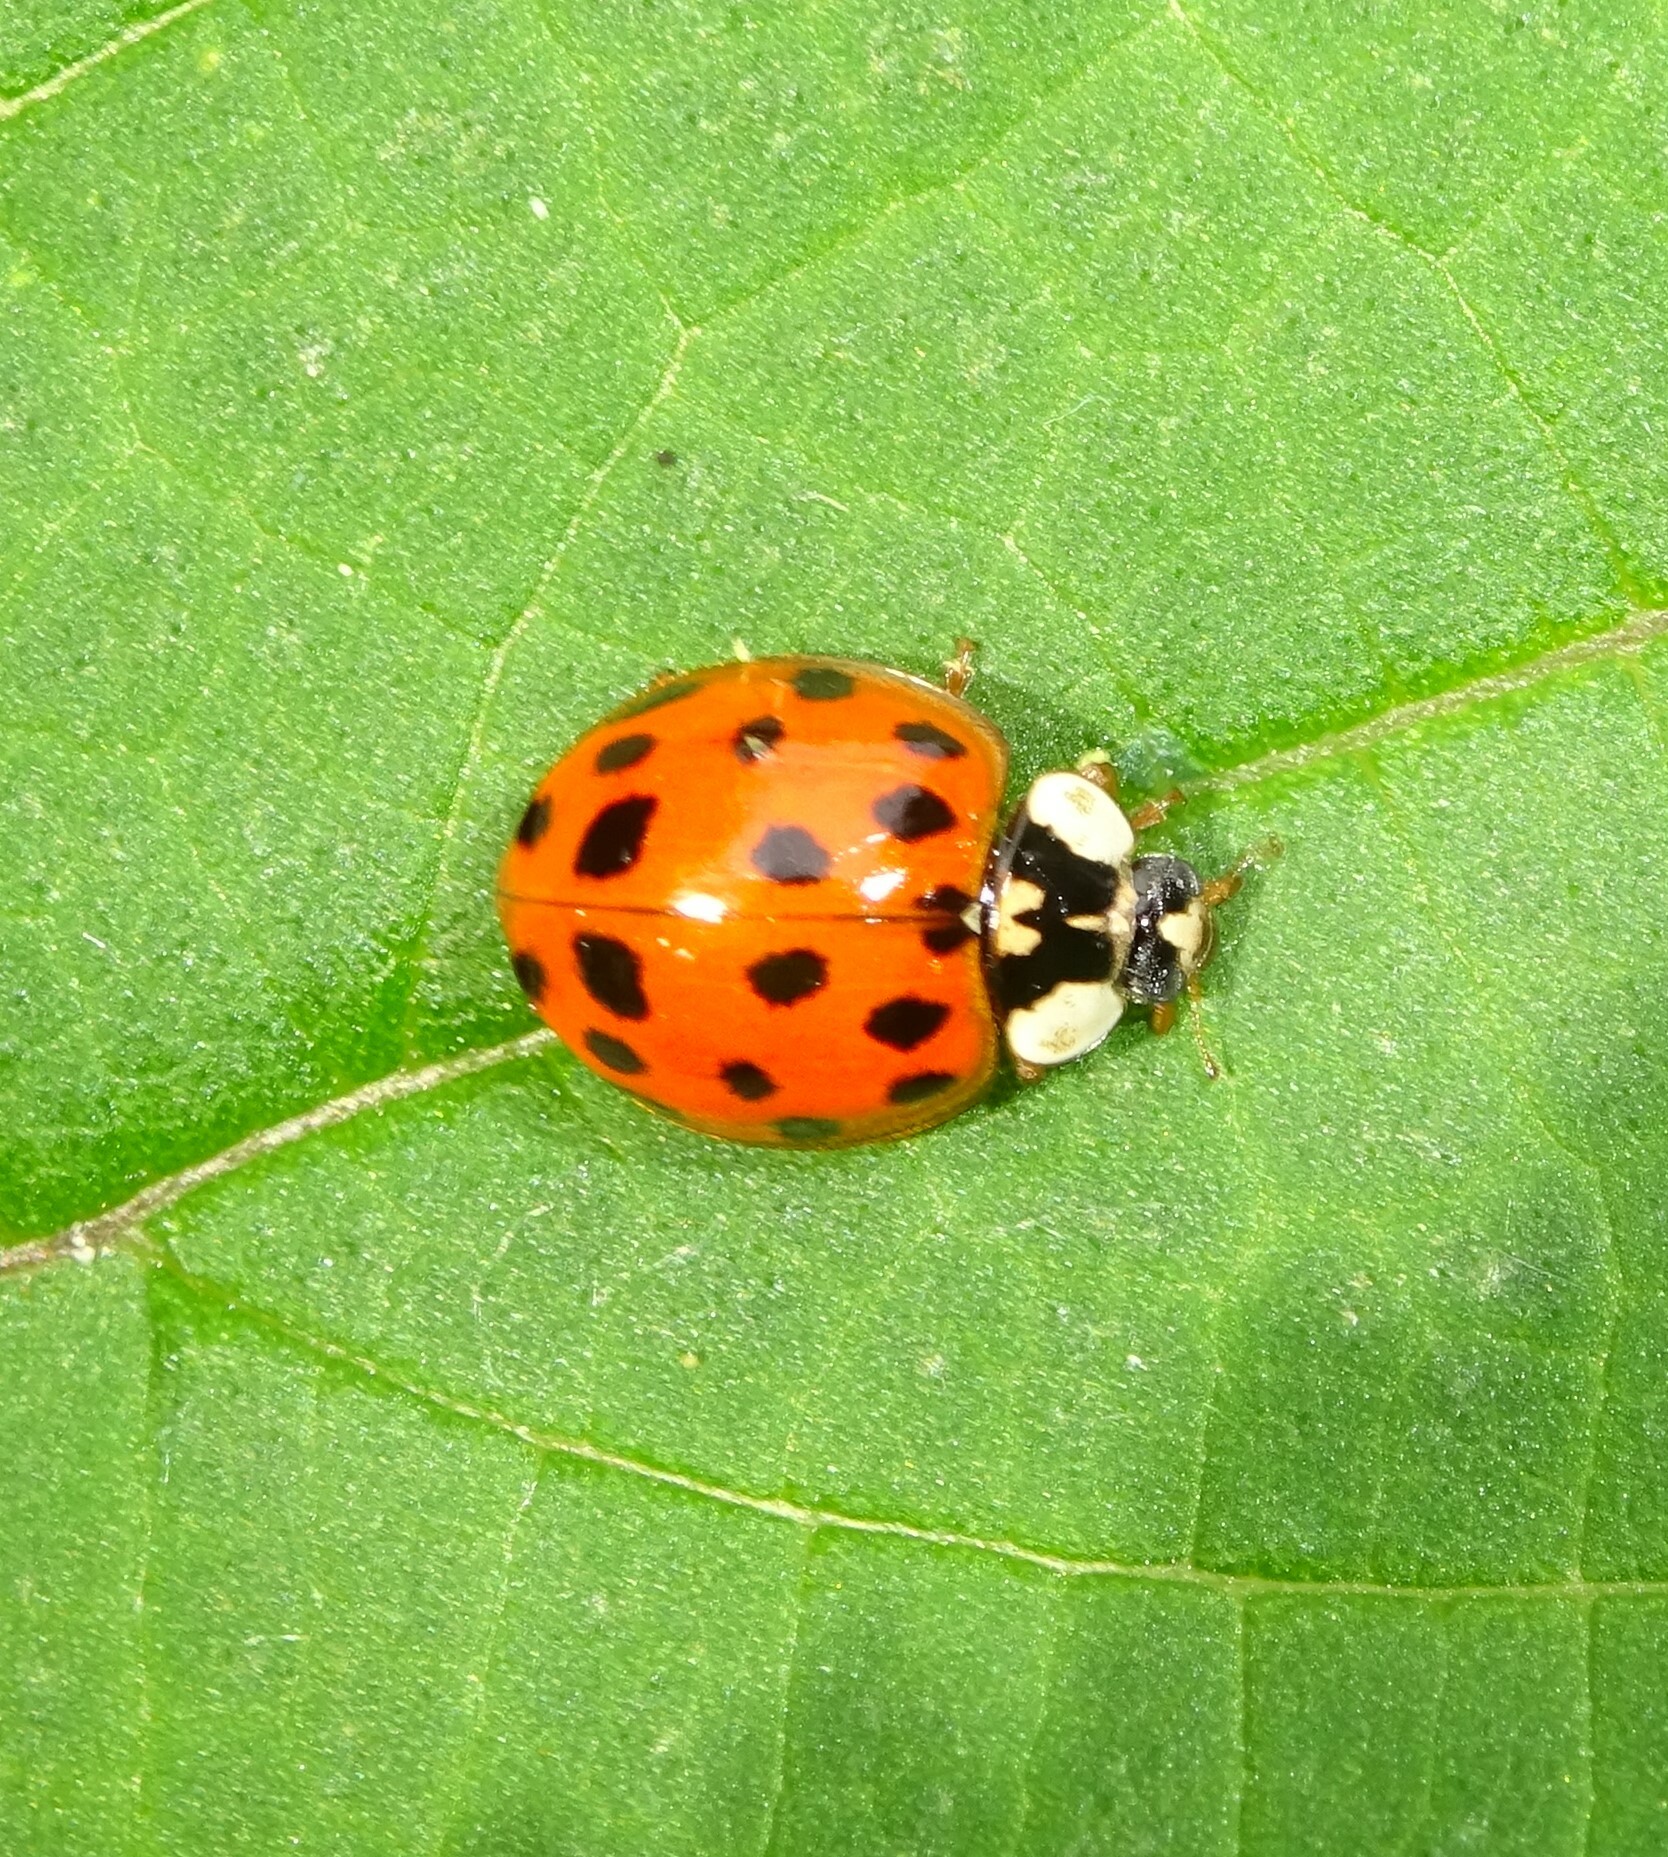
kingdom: Animalia
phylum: Arthropoda
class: Insecta
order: Coleoptera
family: Coccinellidae
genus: Harmonia
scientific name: Harmonia axyridis
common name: Harlequin ladybird
